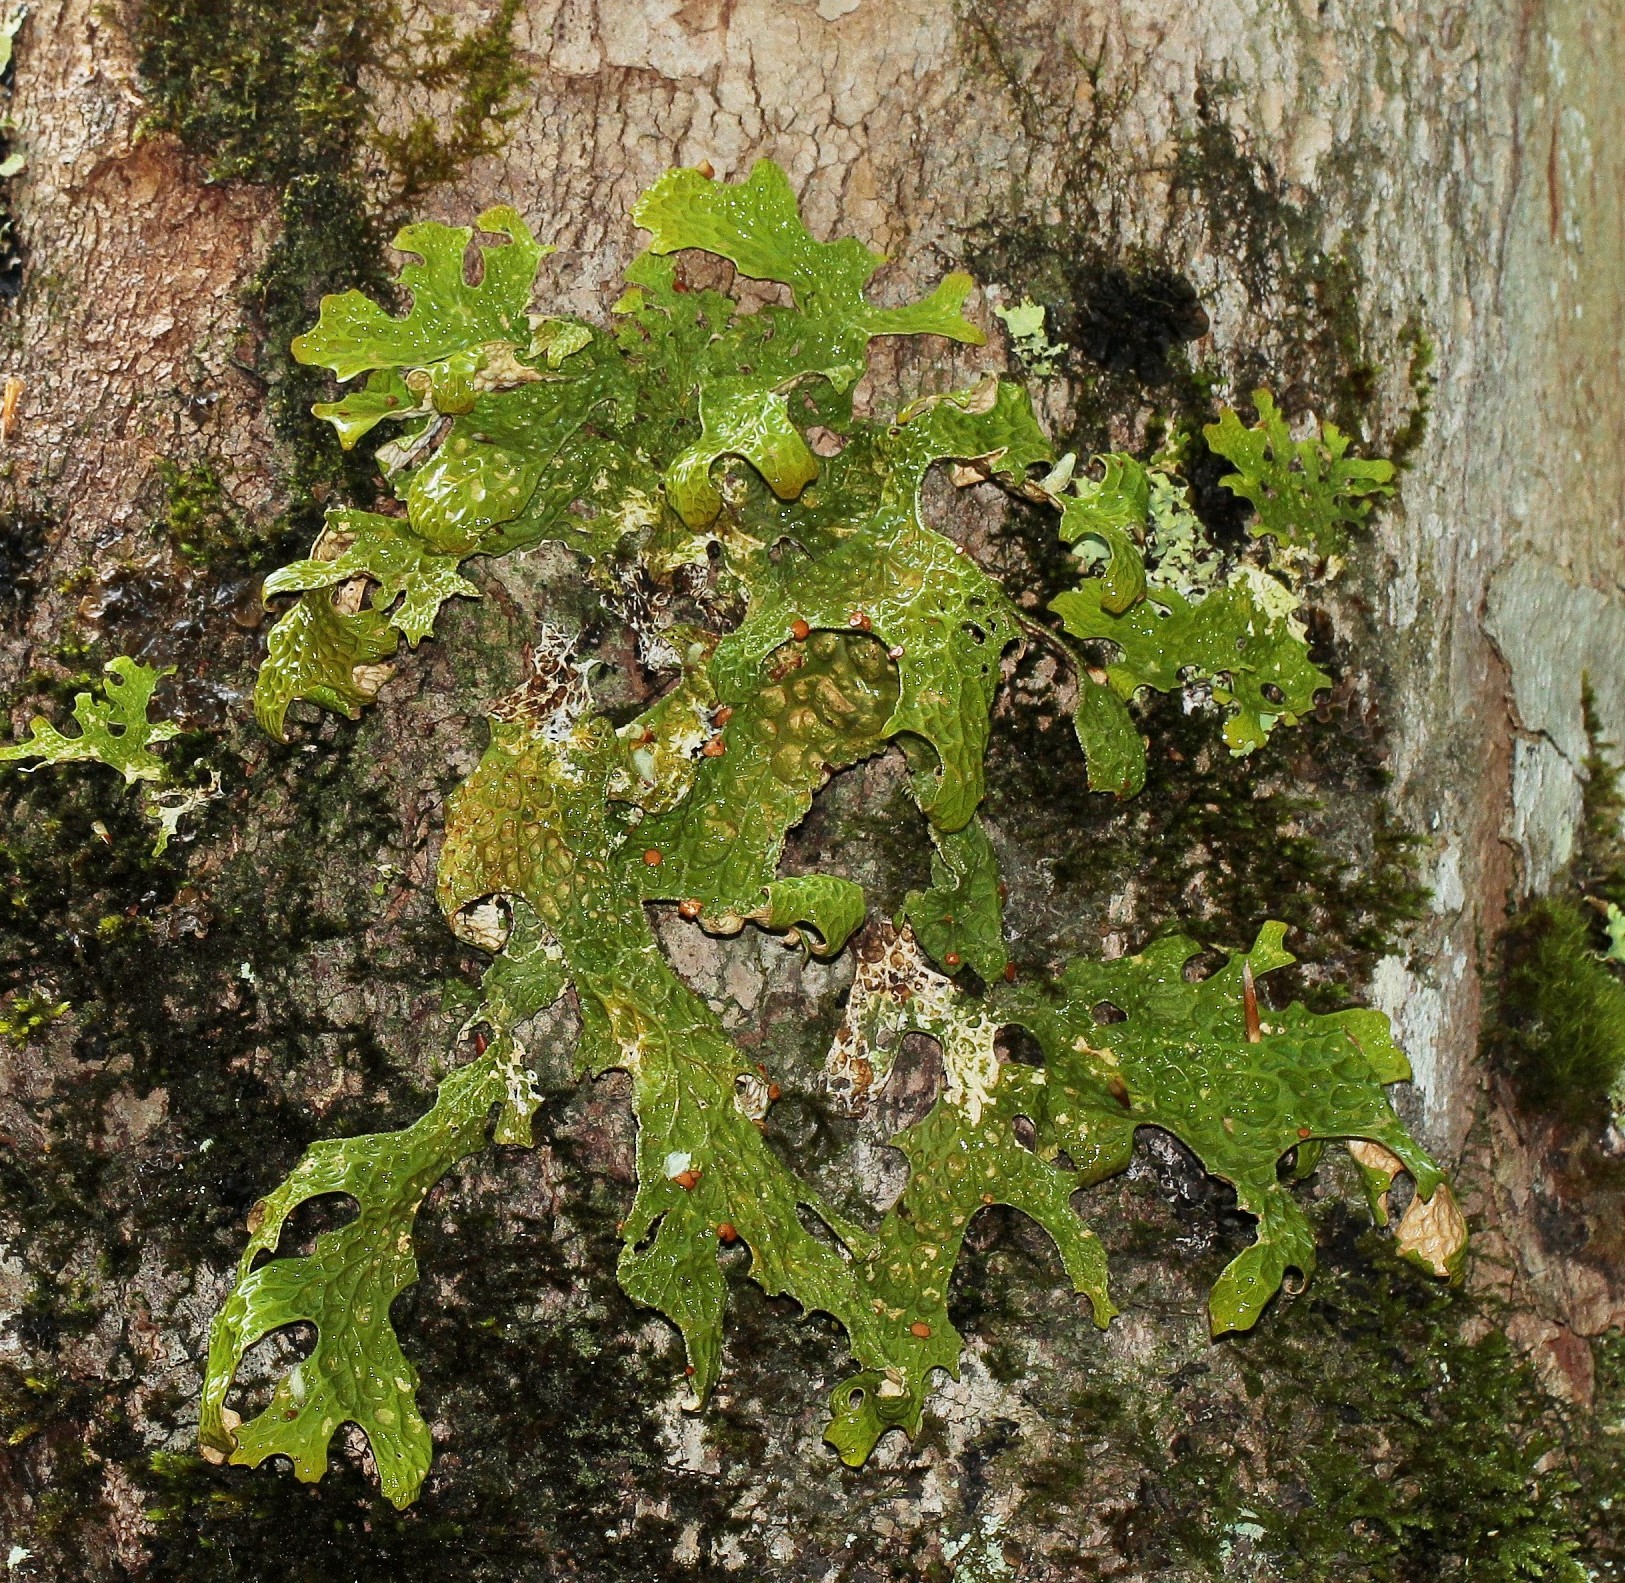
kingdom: Fungi
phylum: Ascomycota
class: Lecanoromycetes
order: Peltigerales
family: Lobariaceae
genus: Lobaria
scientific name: Lobaria pulmonaria
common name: Lungwort
